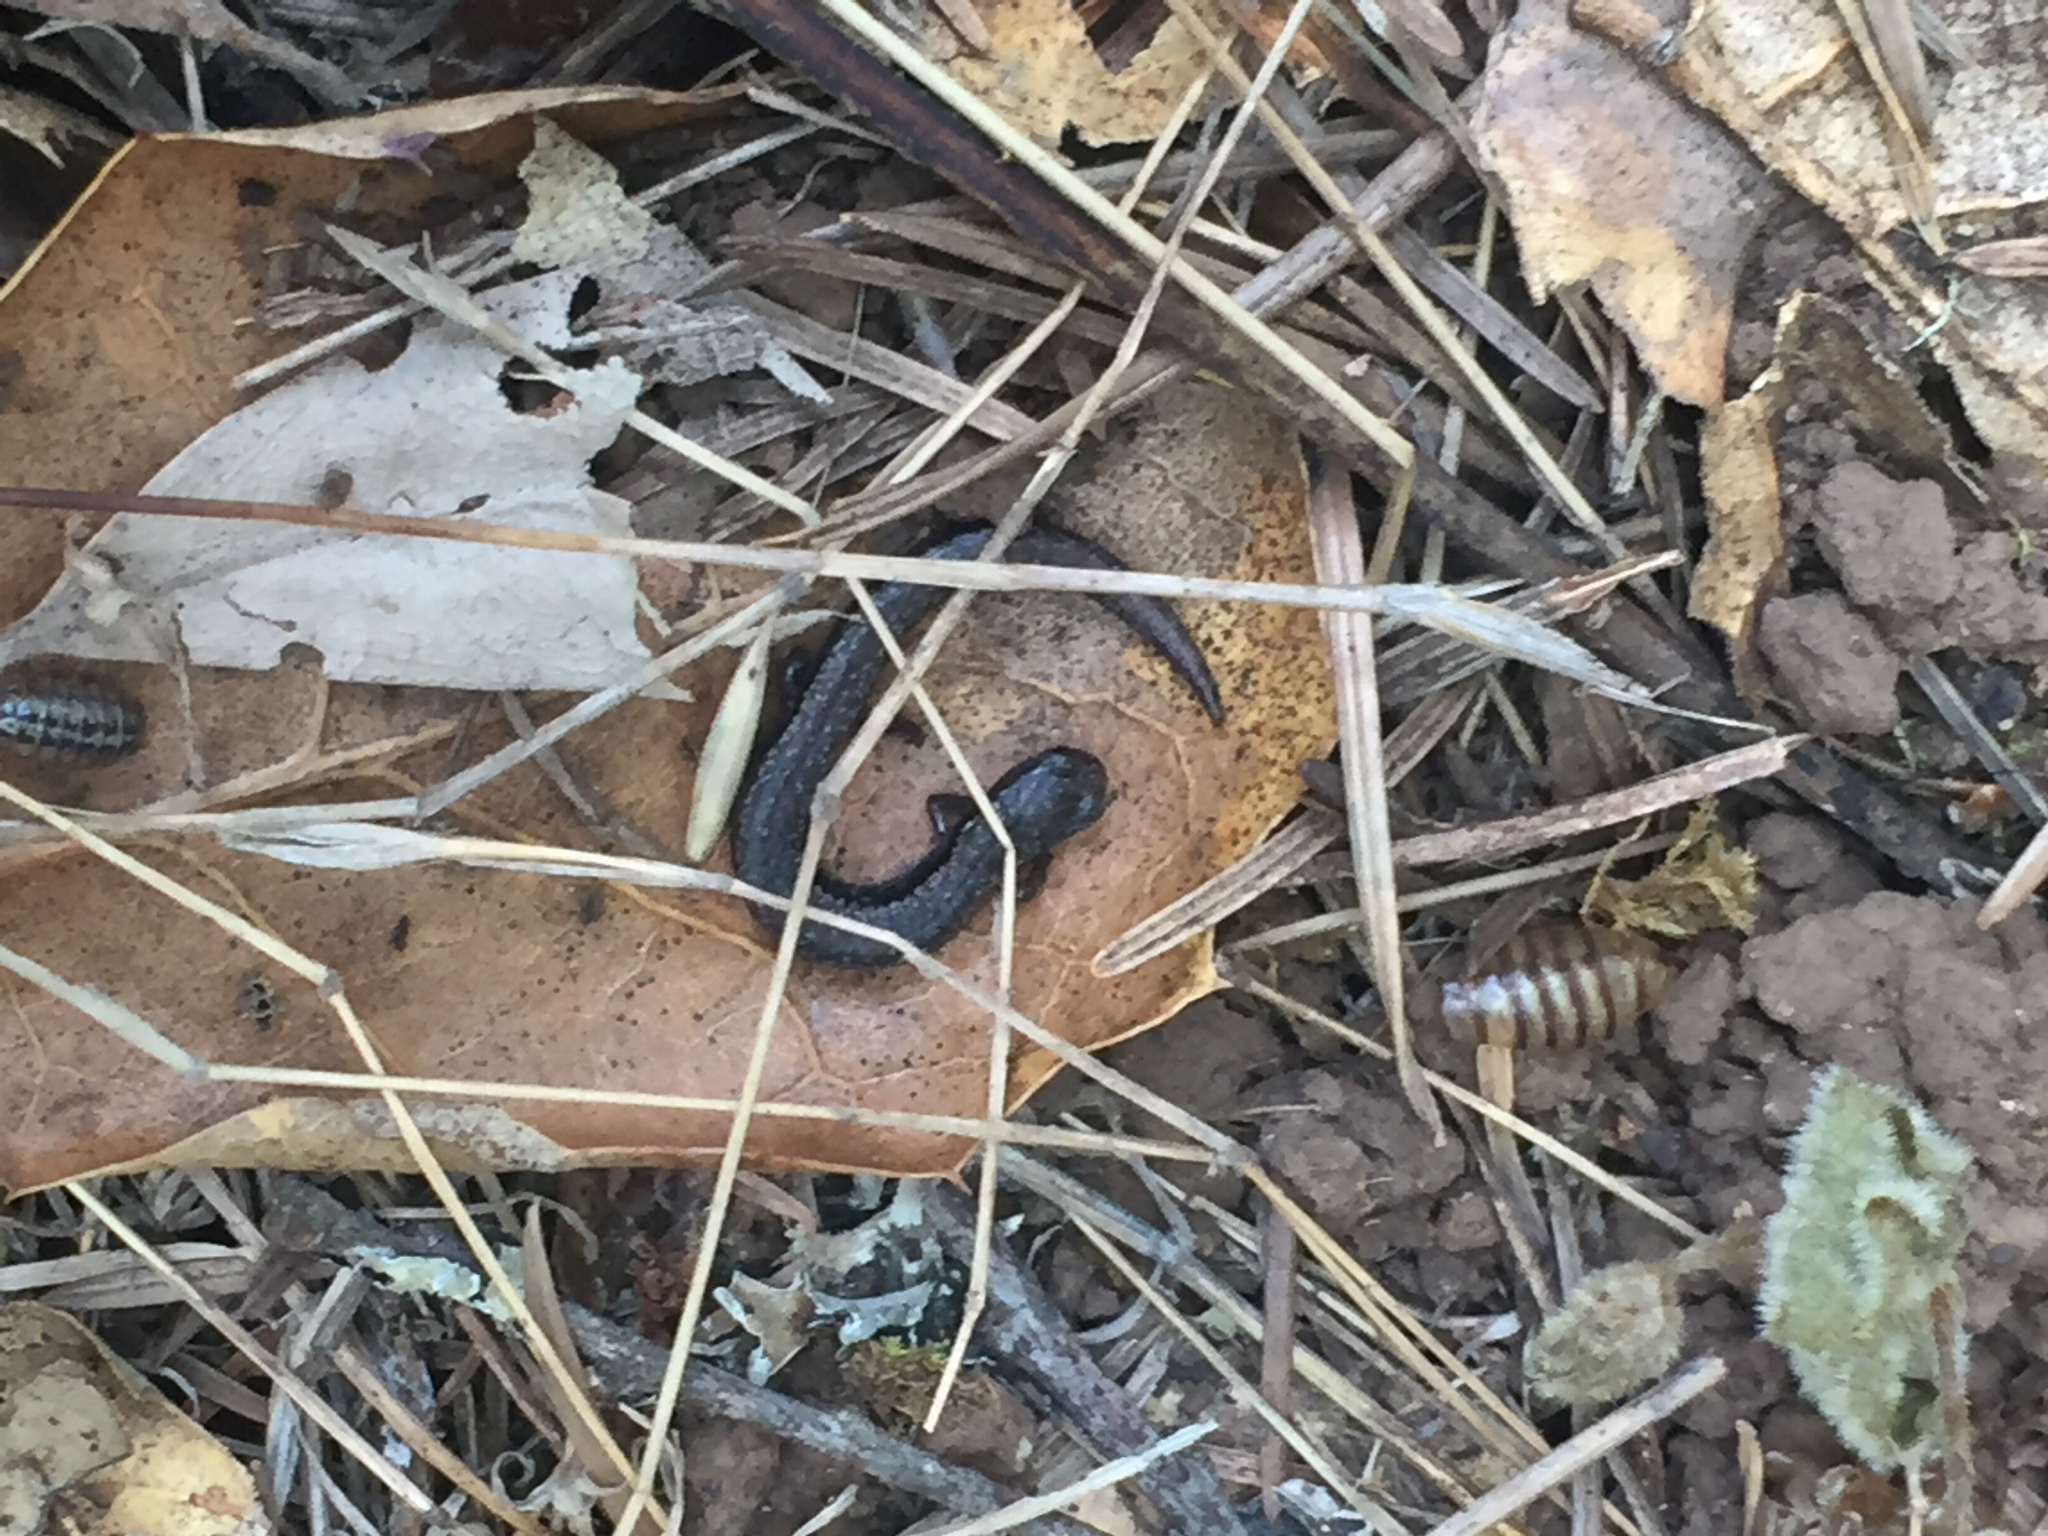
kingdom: Animalia
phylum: Chordata
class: Amphibia
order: Caudata
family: Plethodontidae
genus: Batrachoseps
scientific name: Batrachoseps attenuatus
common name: California slender salamander
